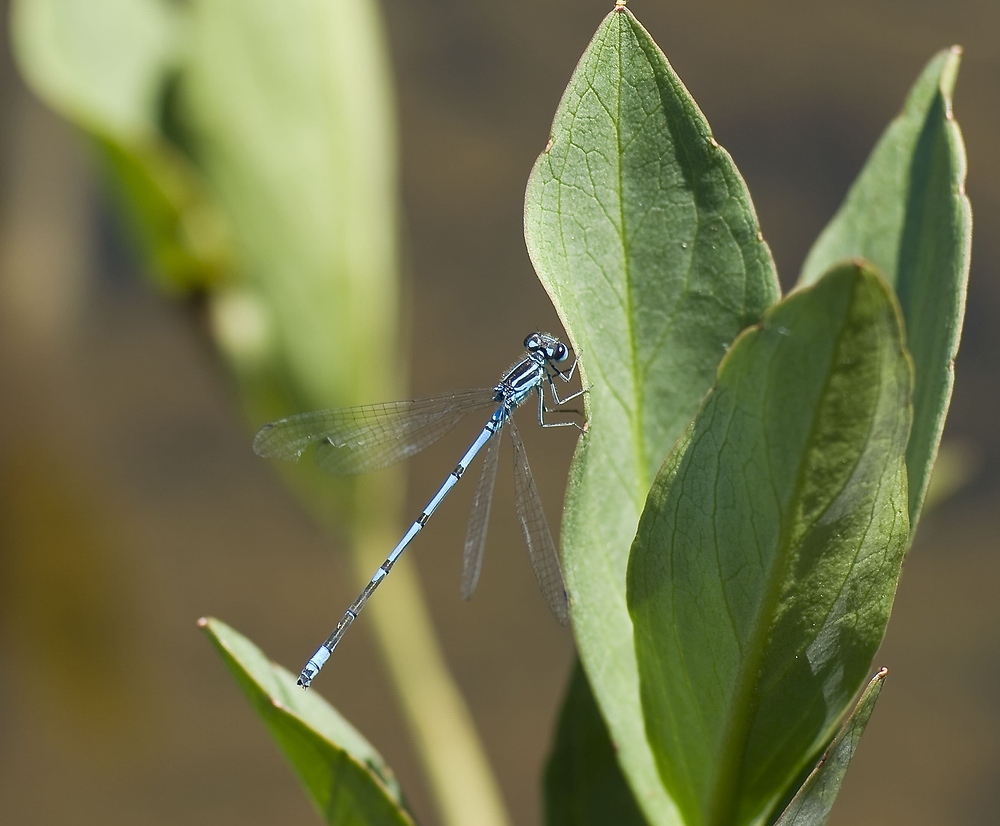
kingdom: Animalia
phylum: Arthropoda
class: Insecta
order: Odonata
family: Coenagrionidae
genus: Coenagrion
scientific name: Coenagrion puella
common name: Azure damselfly
